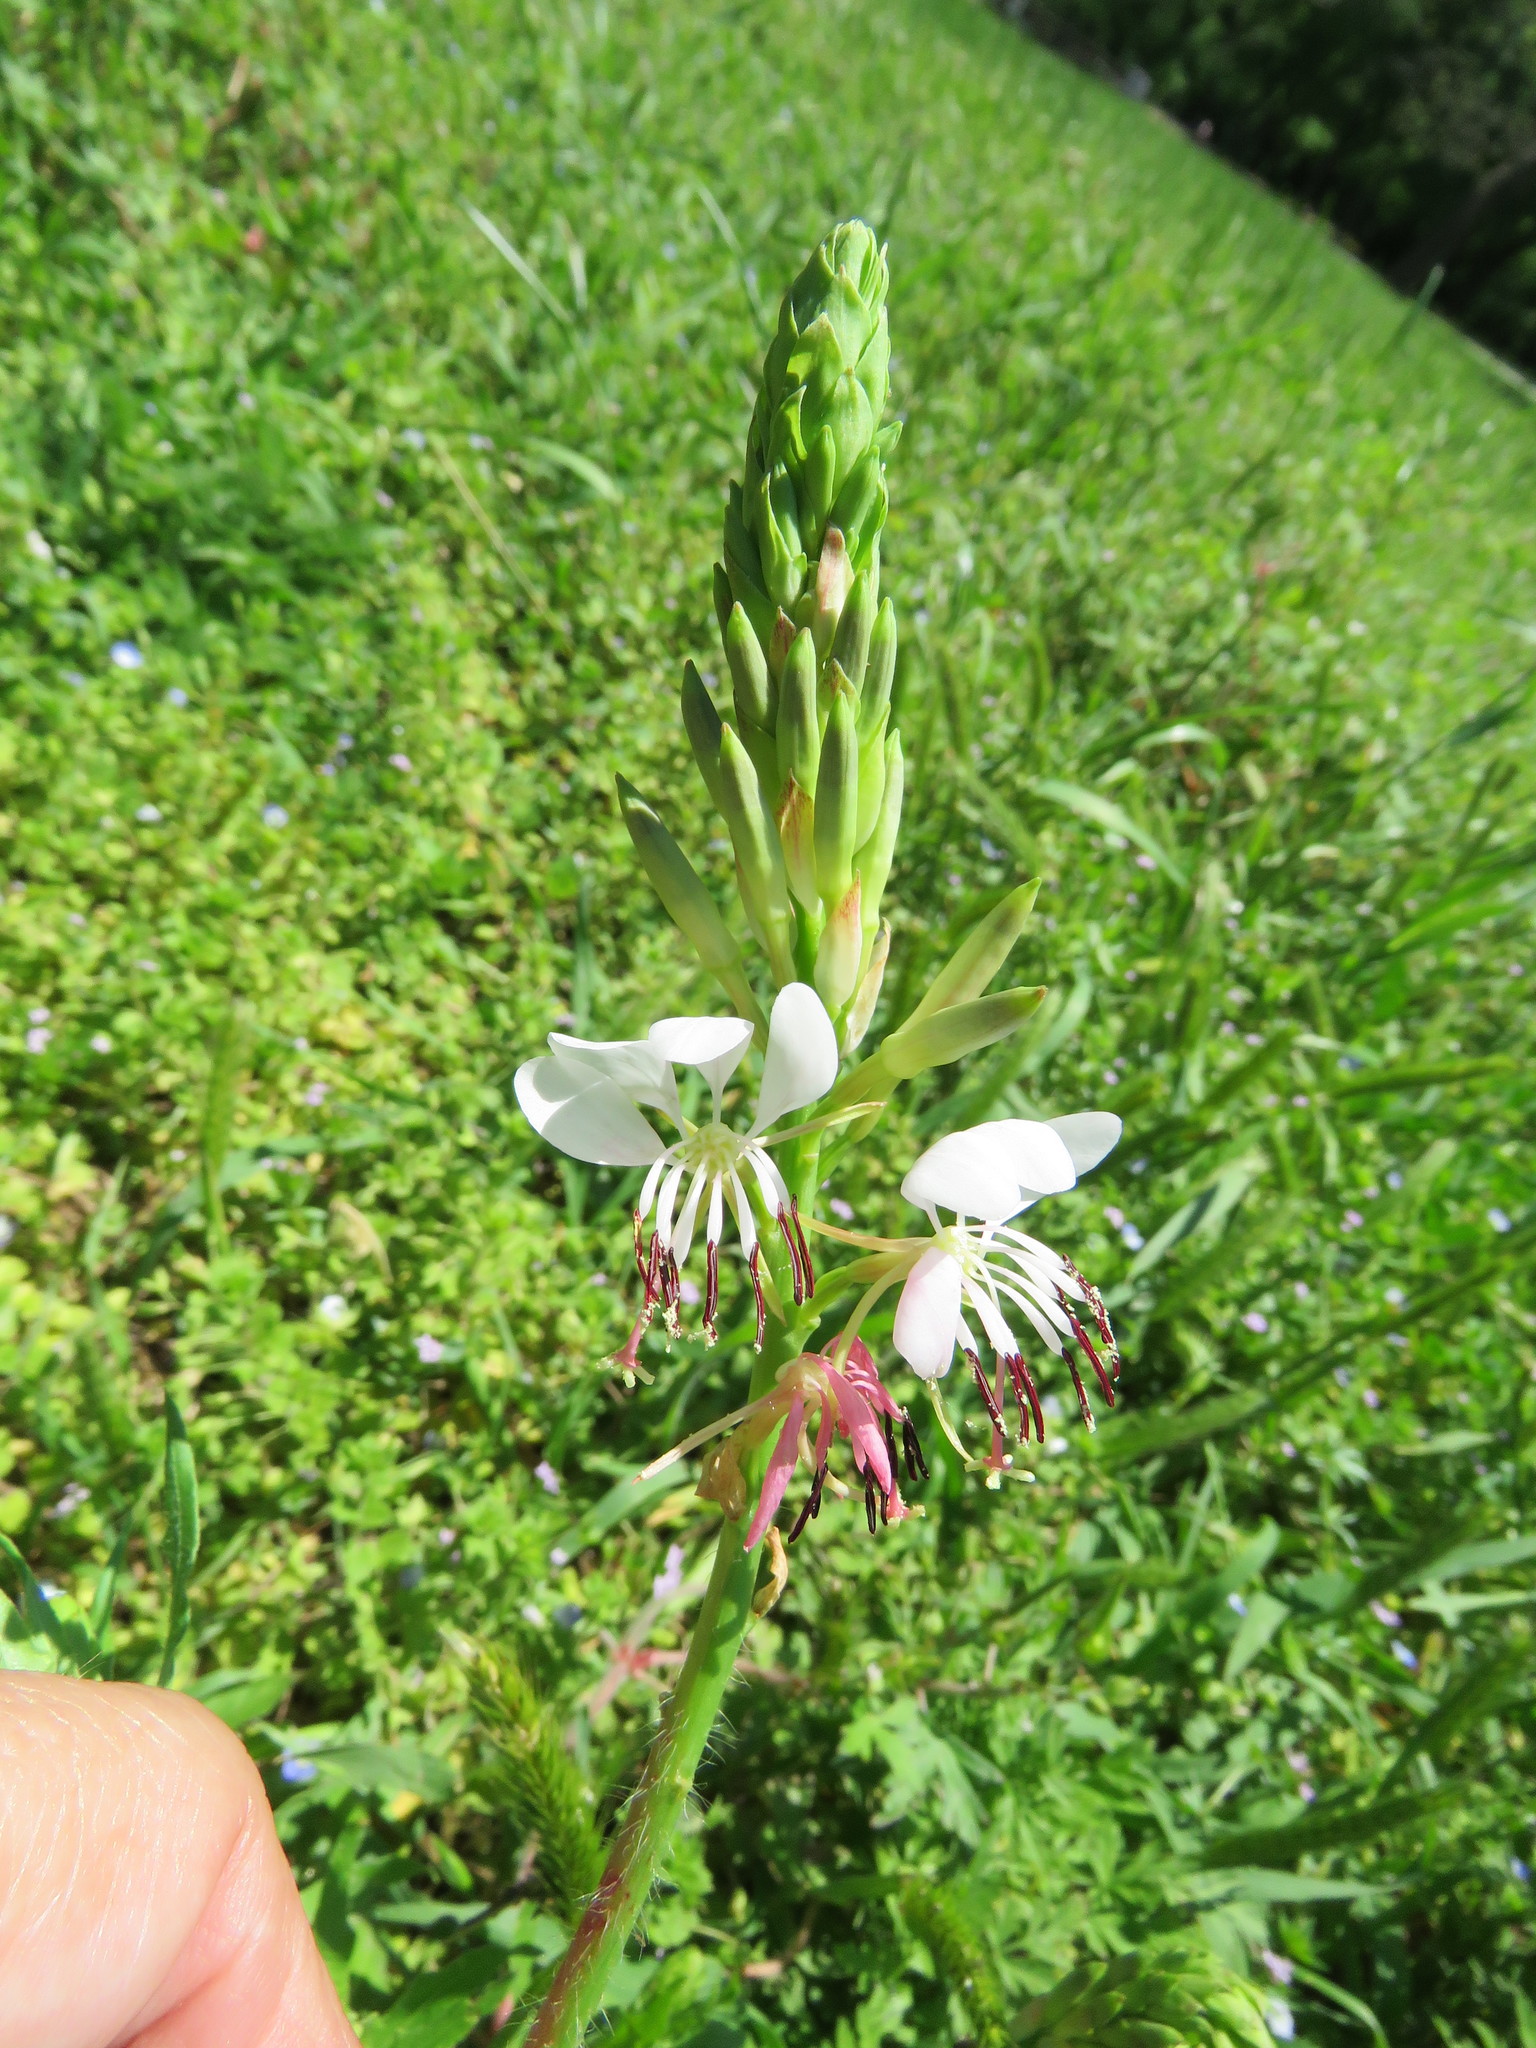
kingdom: Plantae
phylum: Tracheophyta
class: Magnoliopsida
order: Myrtales
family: Onagraceae
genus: Oenothera
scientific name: Oenothera suffulta
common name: Kisses
